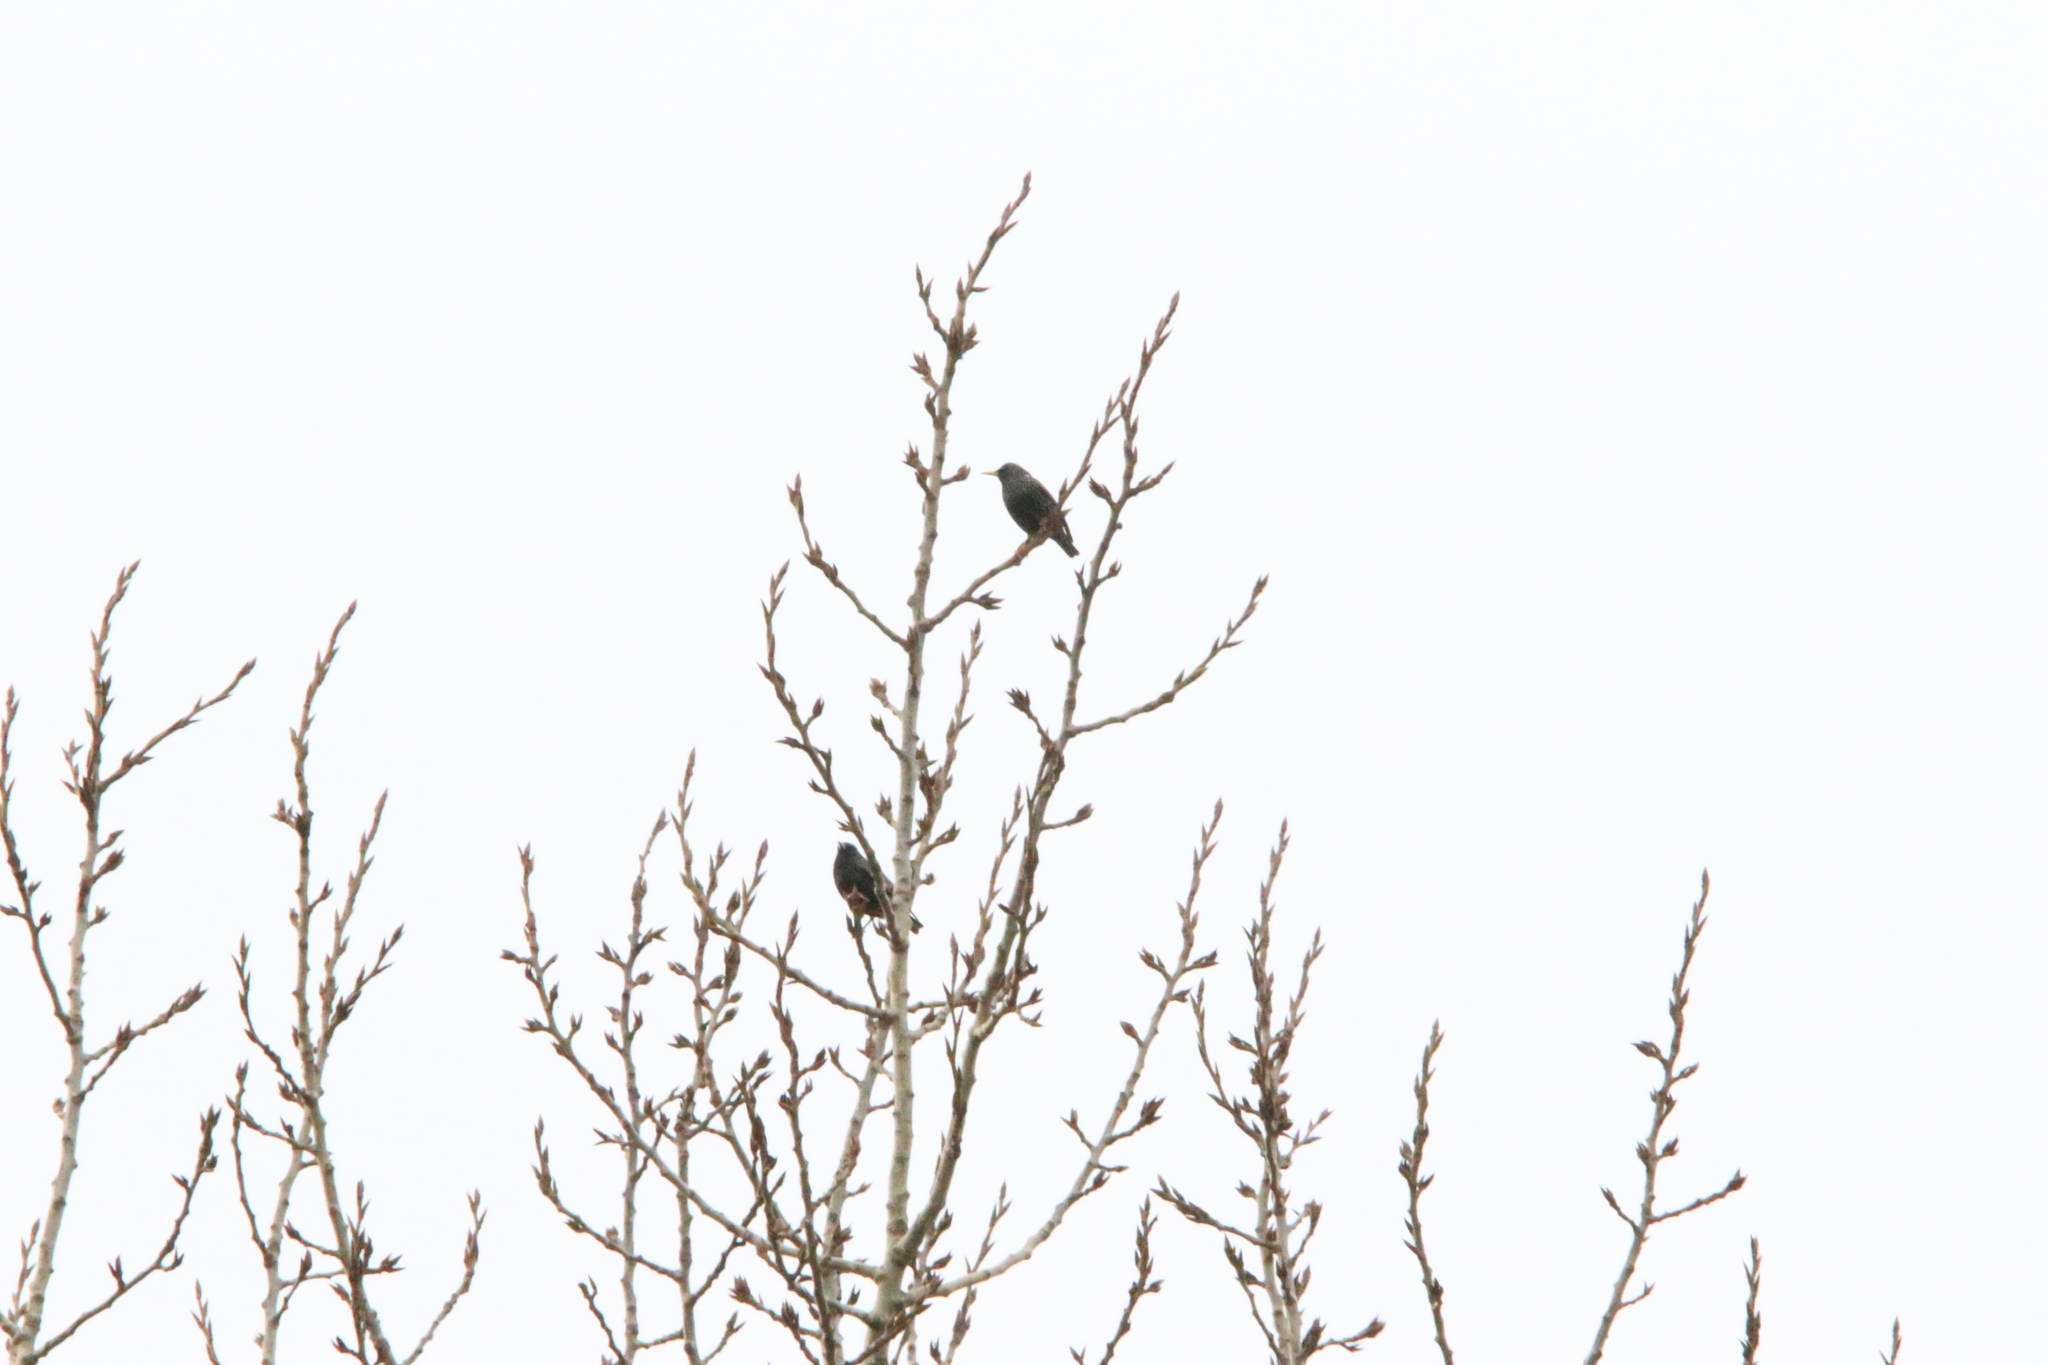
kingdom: Animalia
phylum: Chordata
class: Aves
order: Passeriformes
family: Sturnidae
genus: Sturnus
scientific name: Sturnus vulgaris
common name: Common starling
